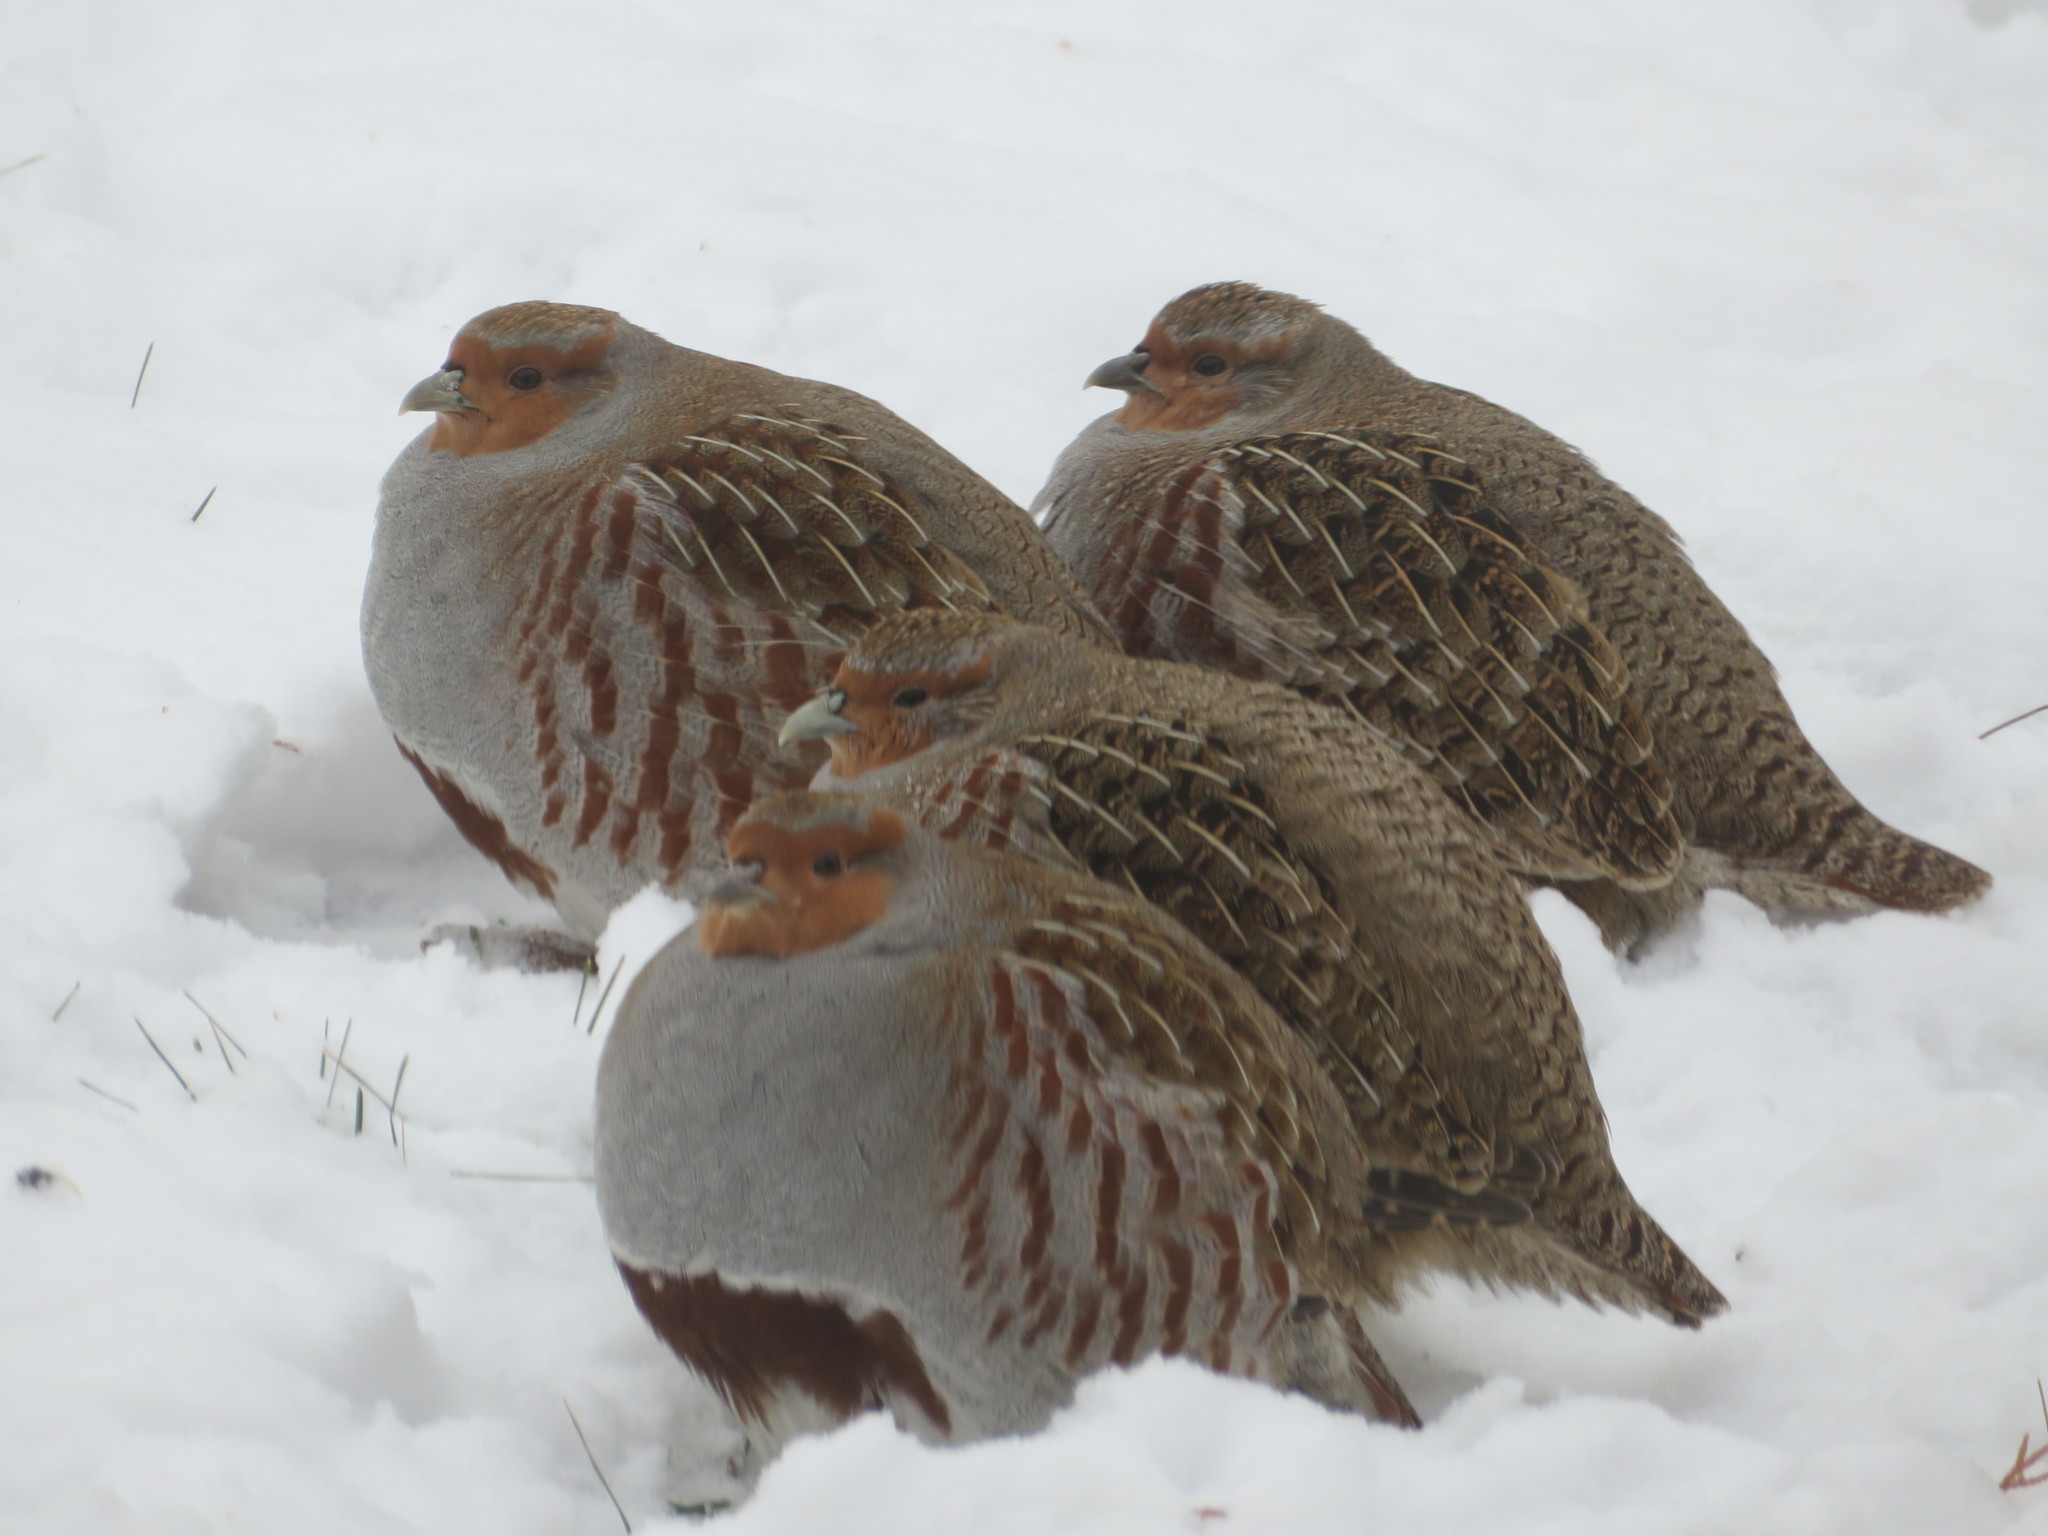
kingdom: Animalia
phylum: Chordata
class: Aves
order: Galliformes
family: Phasianidae
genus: Perdix
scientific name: Perdix perdix
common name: Grey partridge
